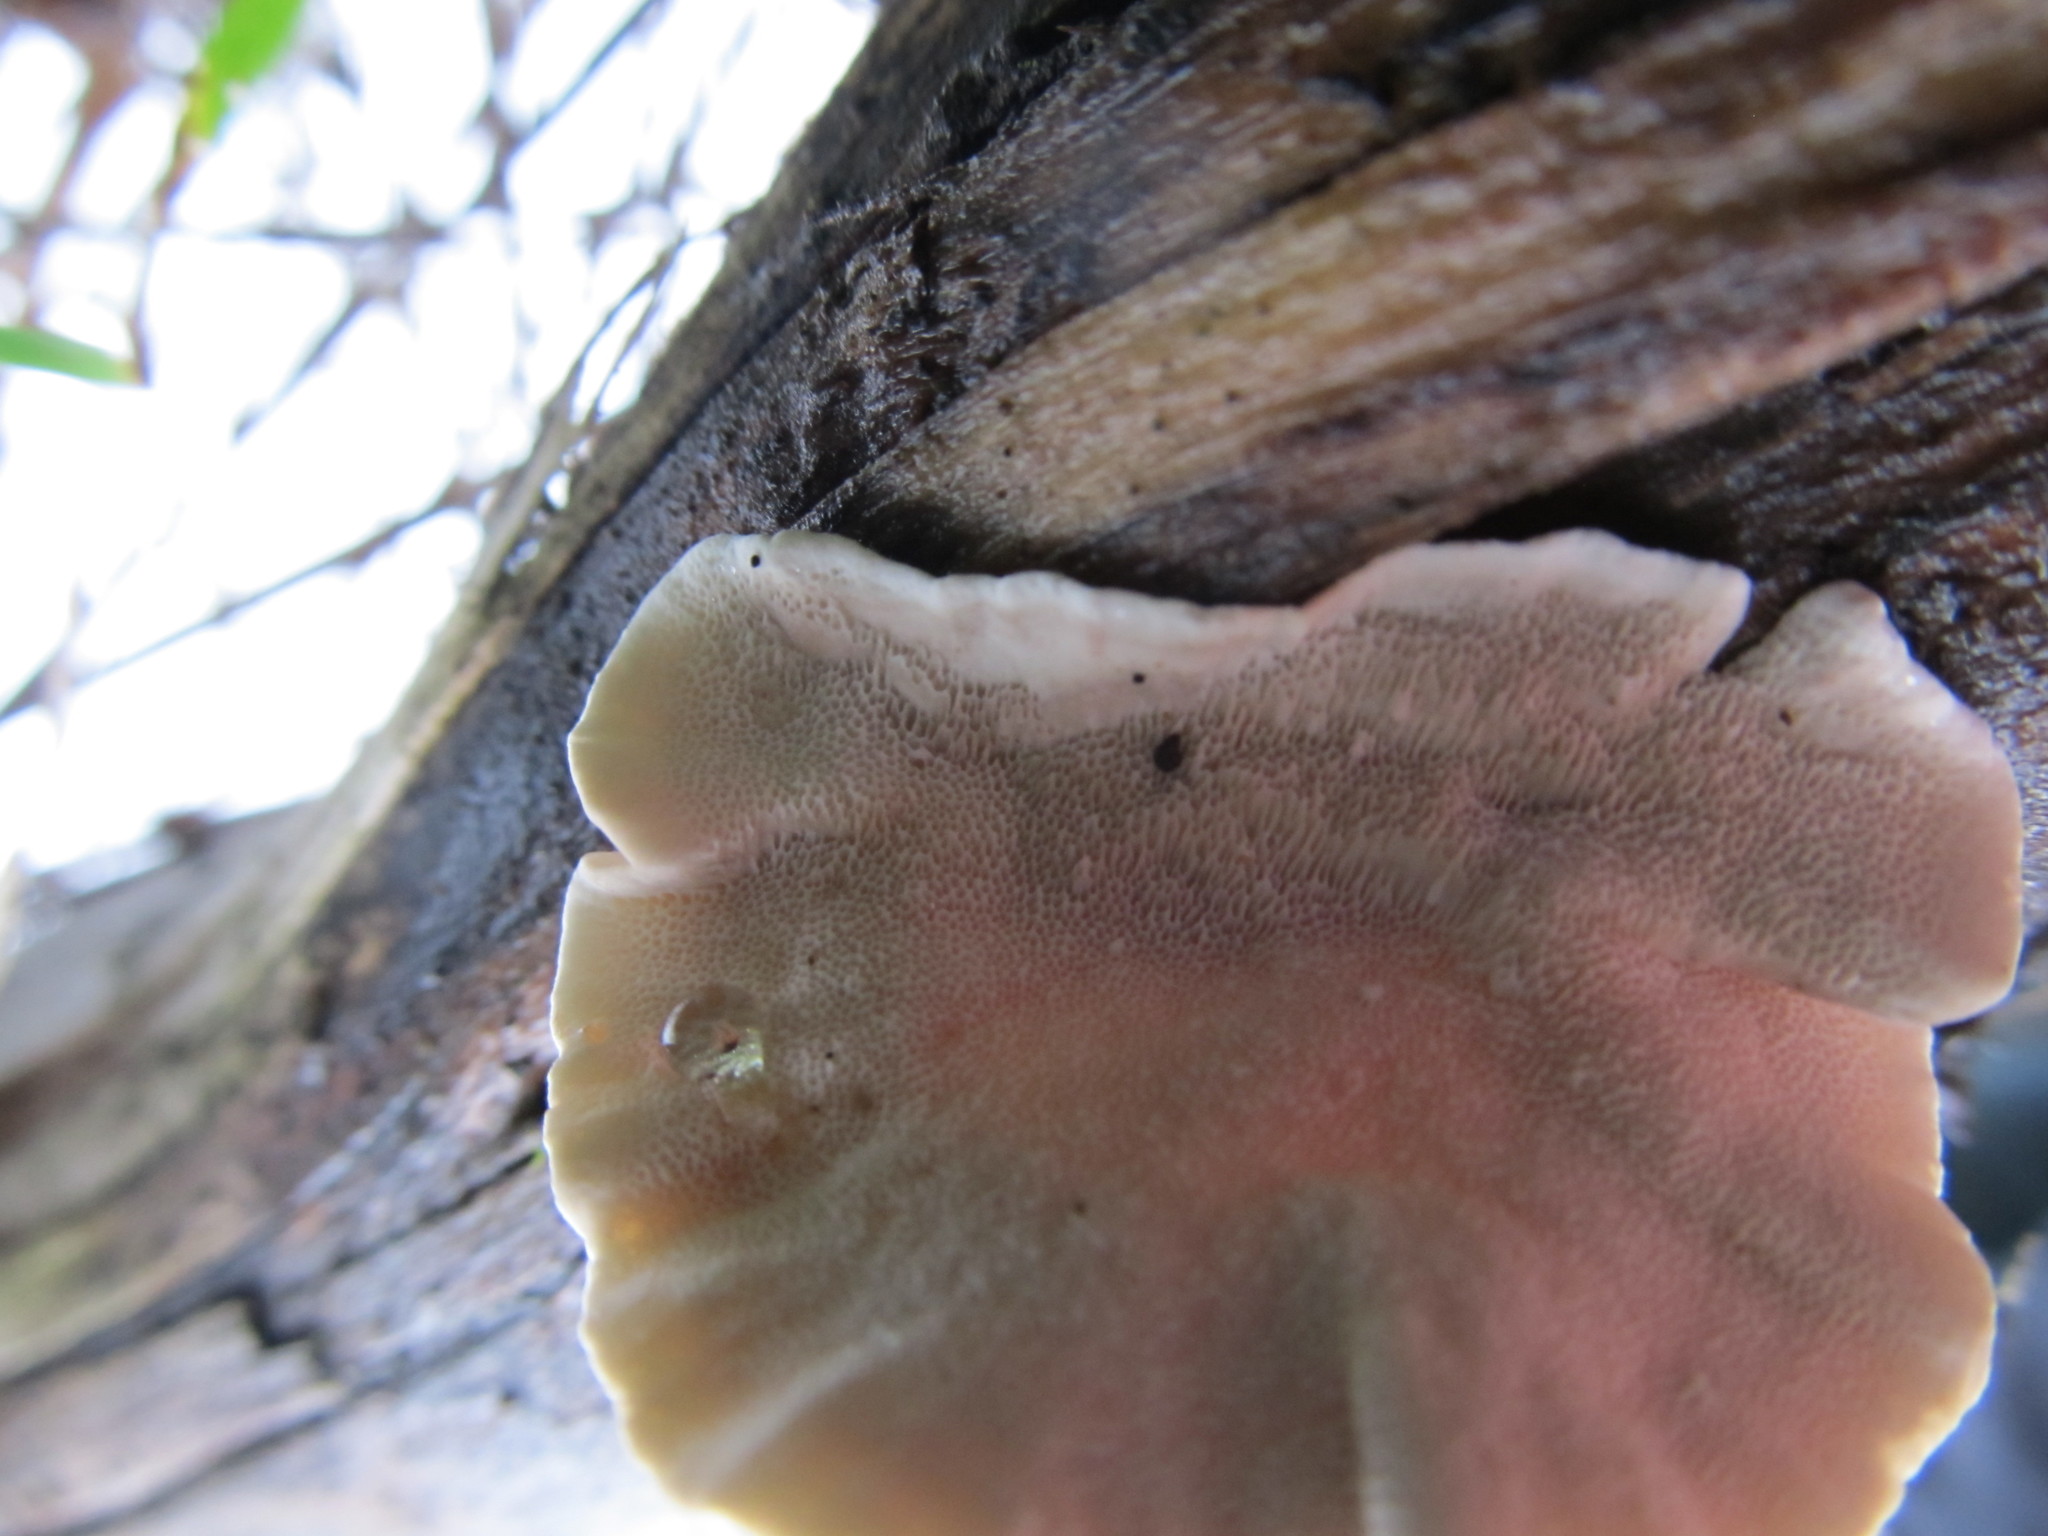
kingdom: Fungi
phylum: Basidiomycota
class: Agaricomycetes
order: Polyporales
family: Polyporaceae
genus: Trametes
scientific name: Trametes versicolor
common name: Turkeytail
